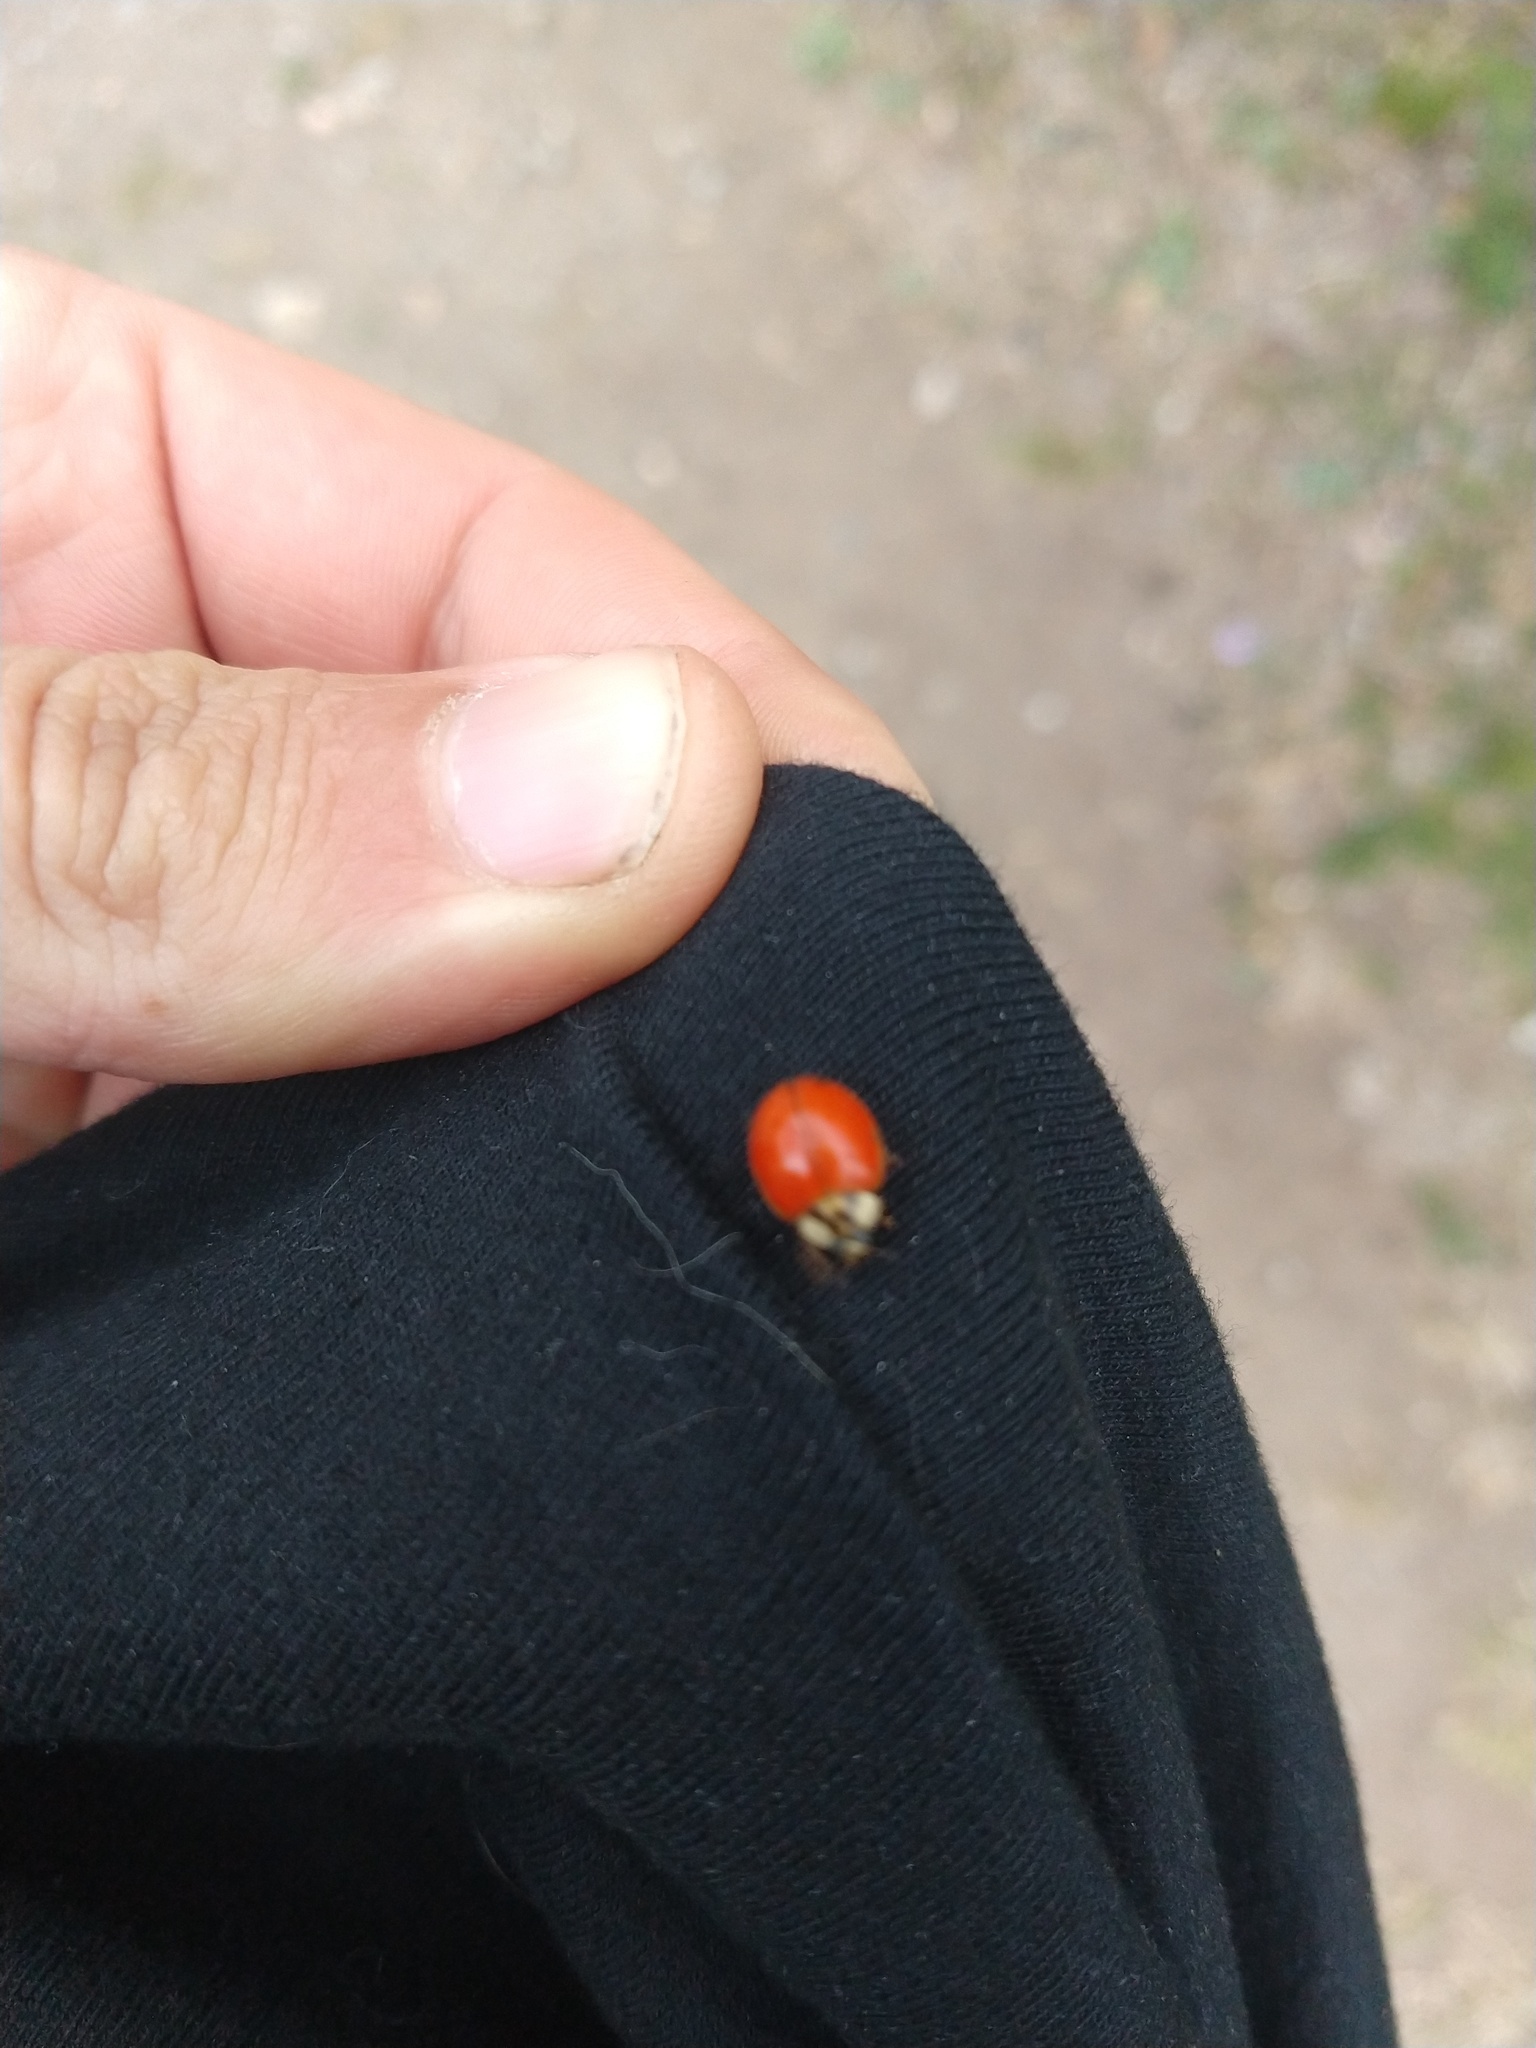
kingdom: Animalia
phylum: Arthropoda
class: Insecta
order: Coleoptera
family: Coccinellidae
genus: Harmonia
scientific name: Harmonia axyridis
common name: Harlequin ladybird
